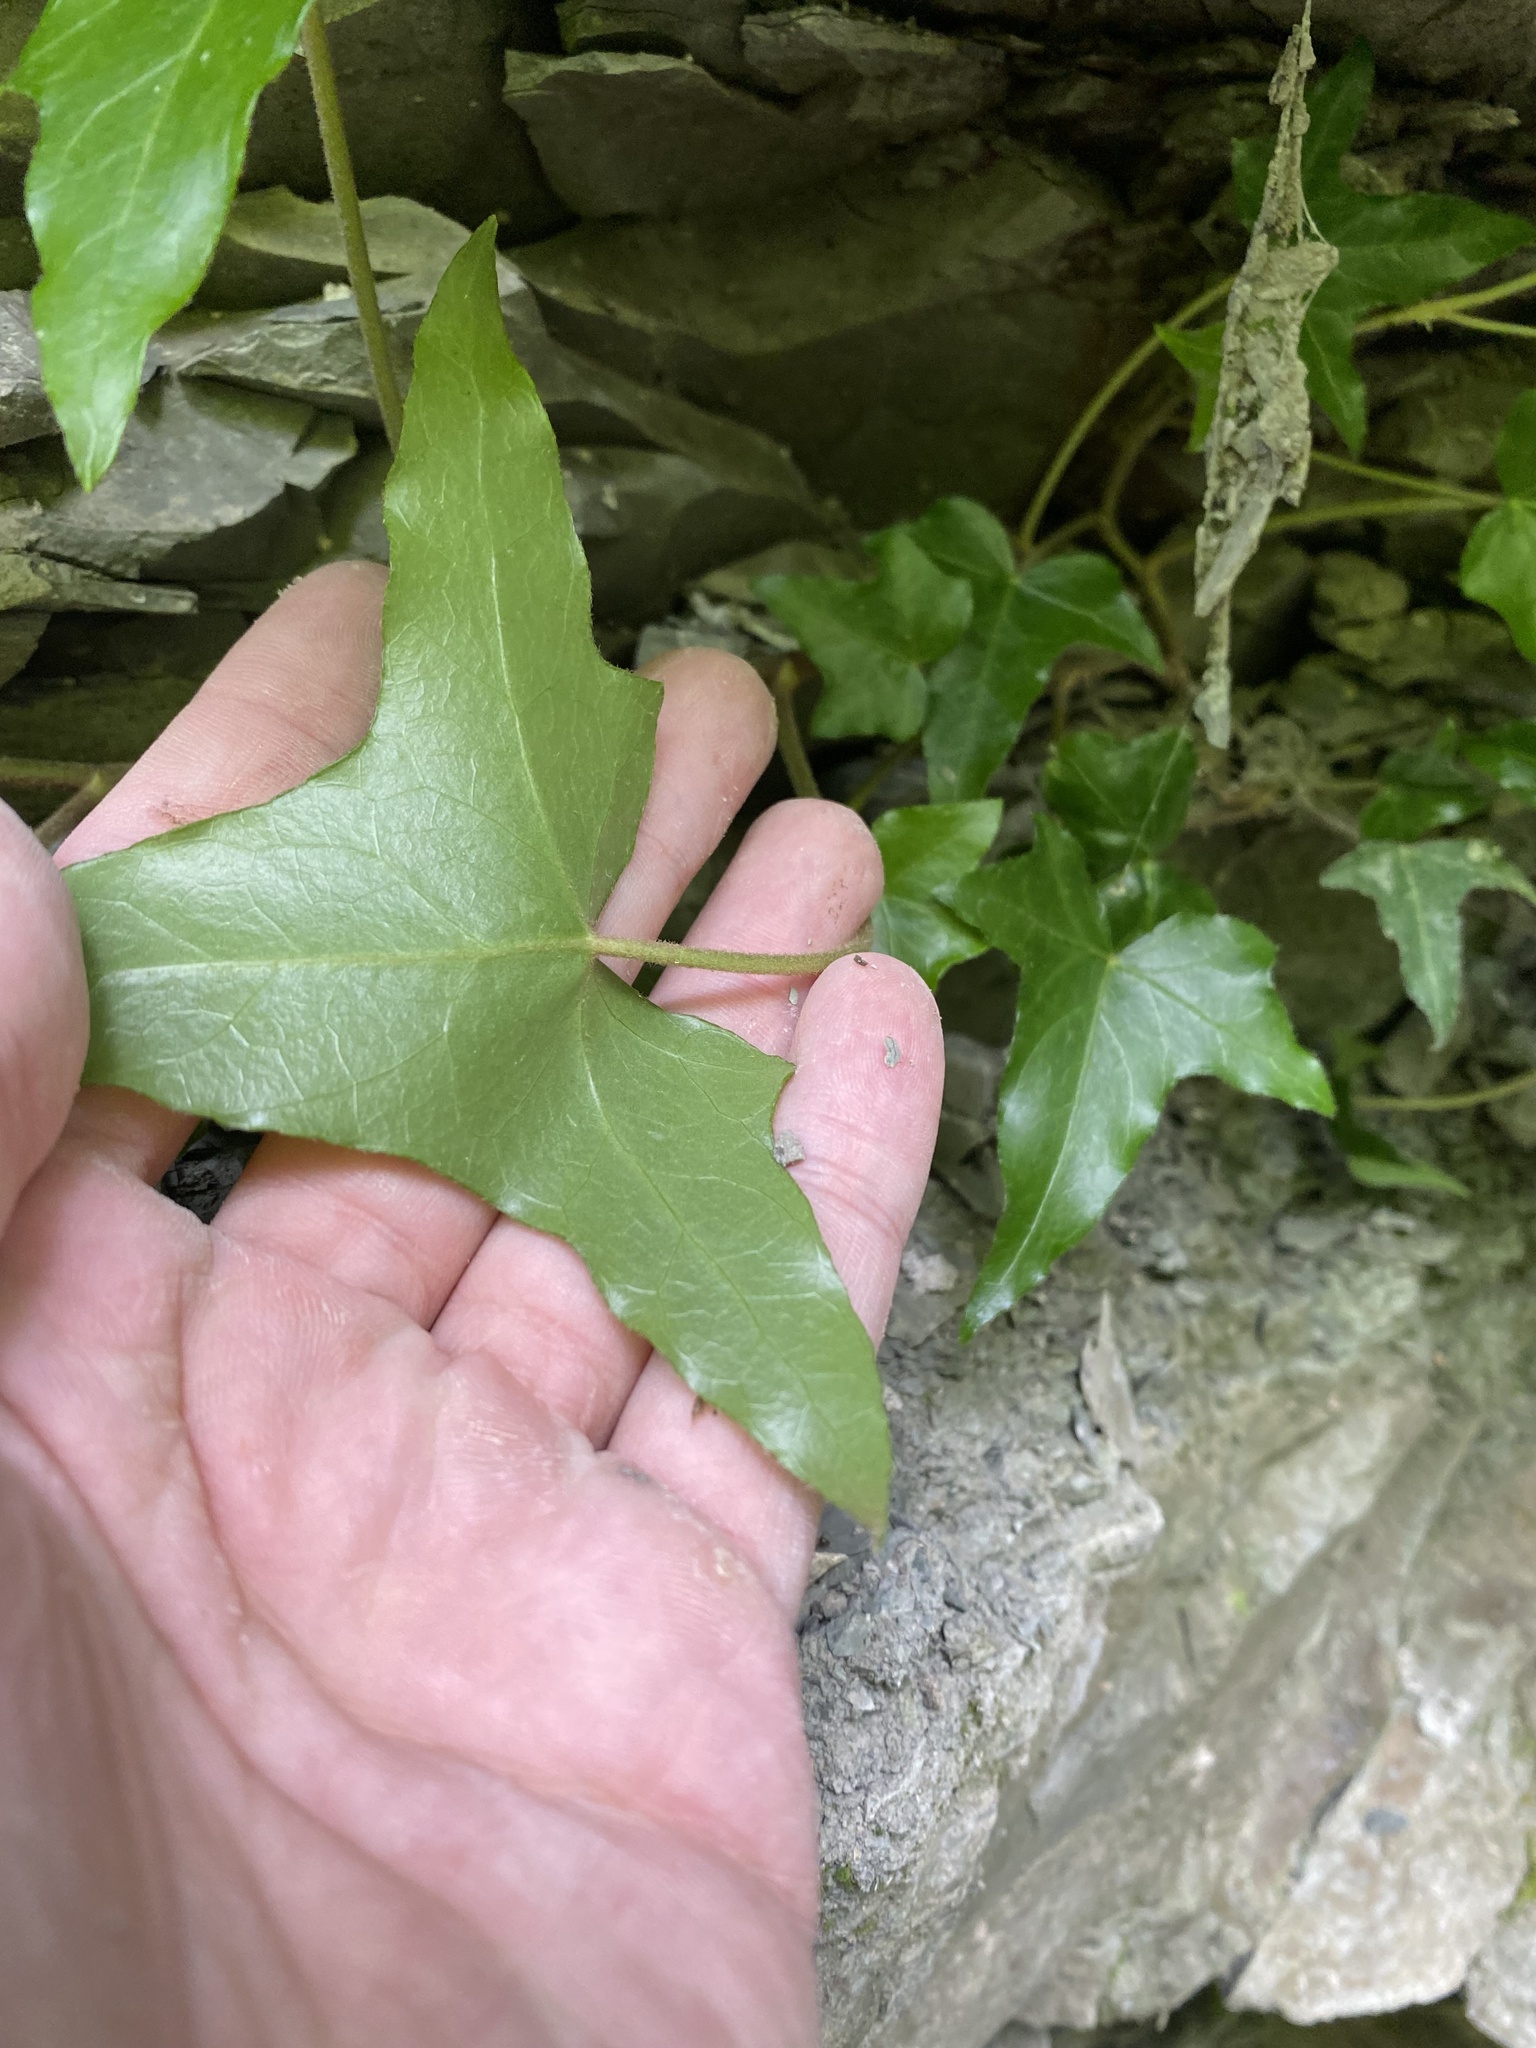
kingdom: Plantae
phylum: Tracheophyta
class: Magnoliopsida
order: Apiales
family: Araliaceae
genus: Hedera
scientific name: Hedera helix
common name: Ivy
